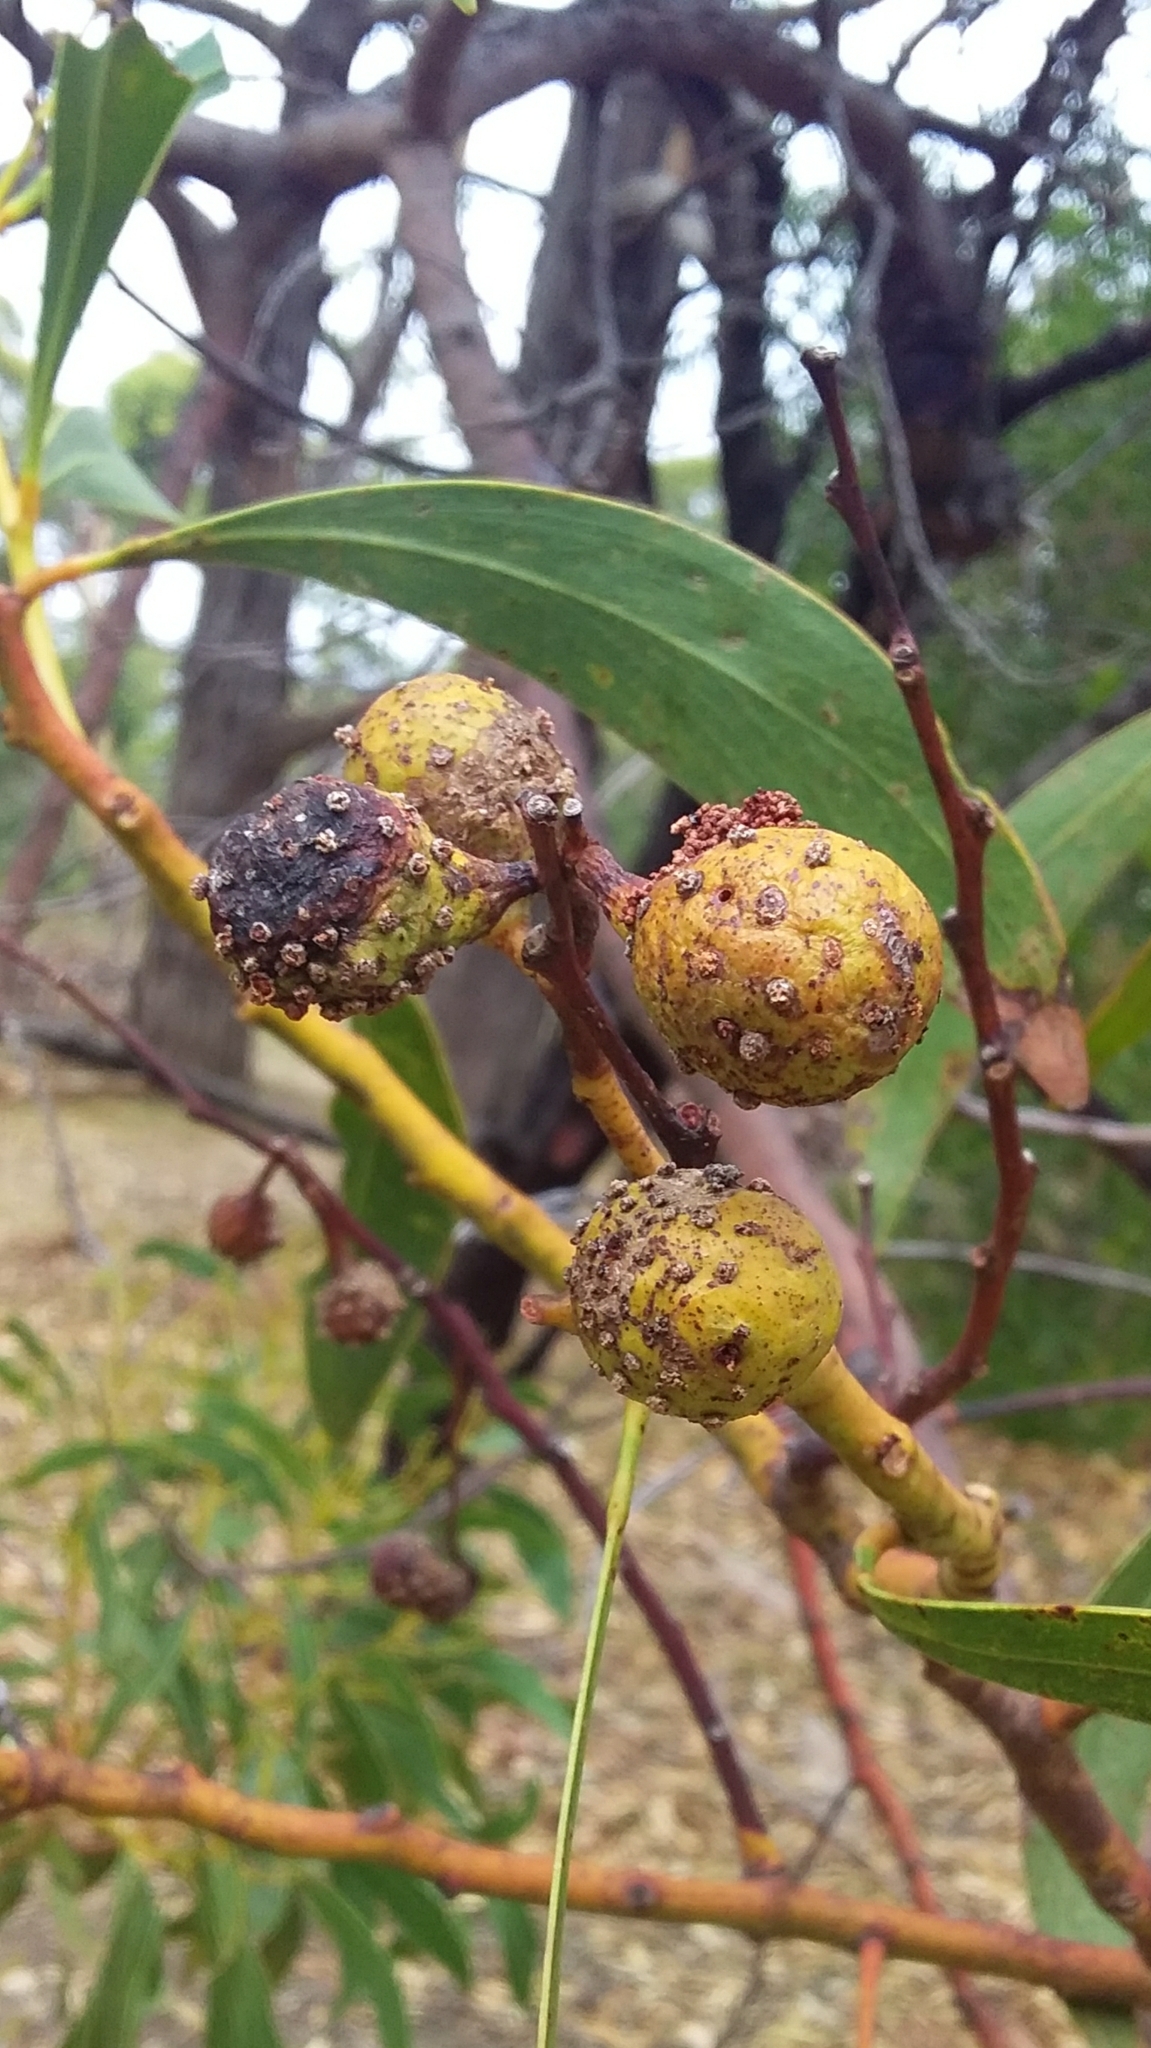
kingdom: Animalia
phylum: Arthropoda
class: Insecta
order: Hymenoptera
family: Pteromalidae
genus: Trichilogaster
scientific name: Trichilogaster signiventris
